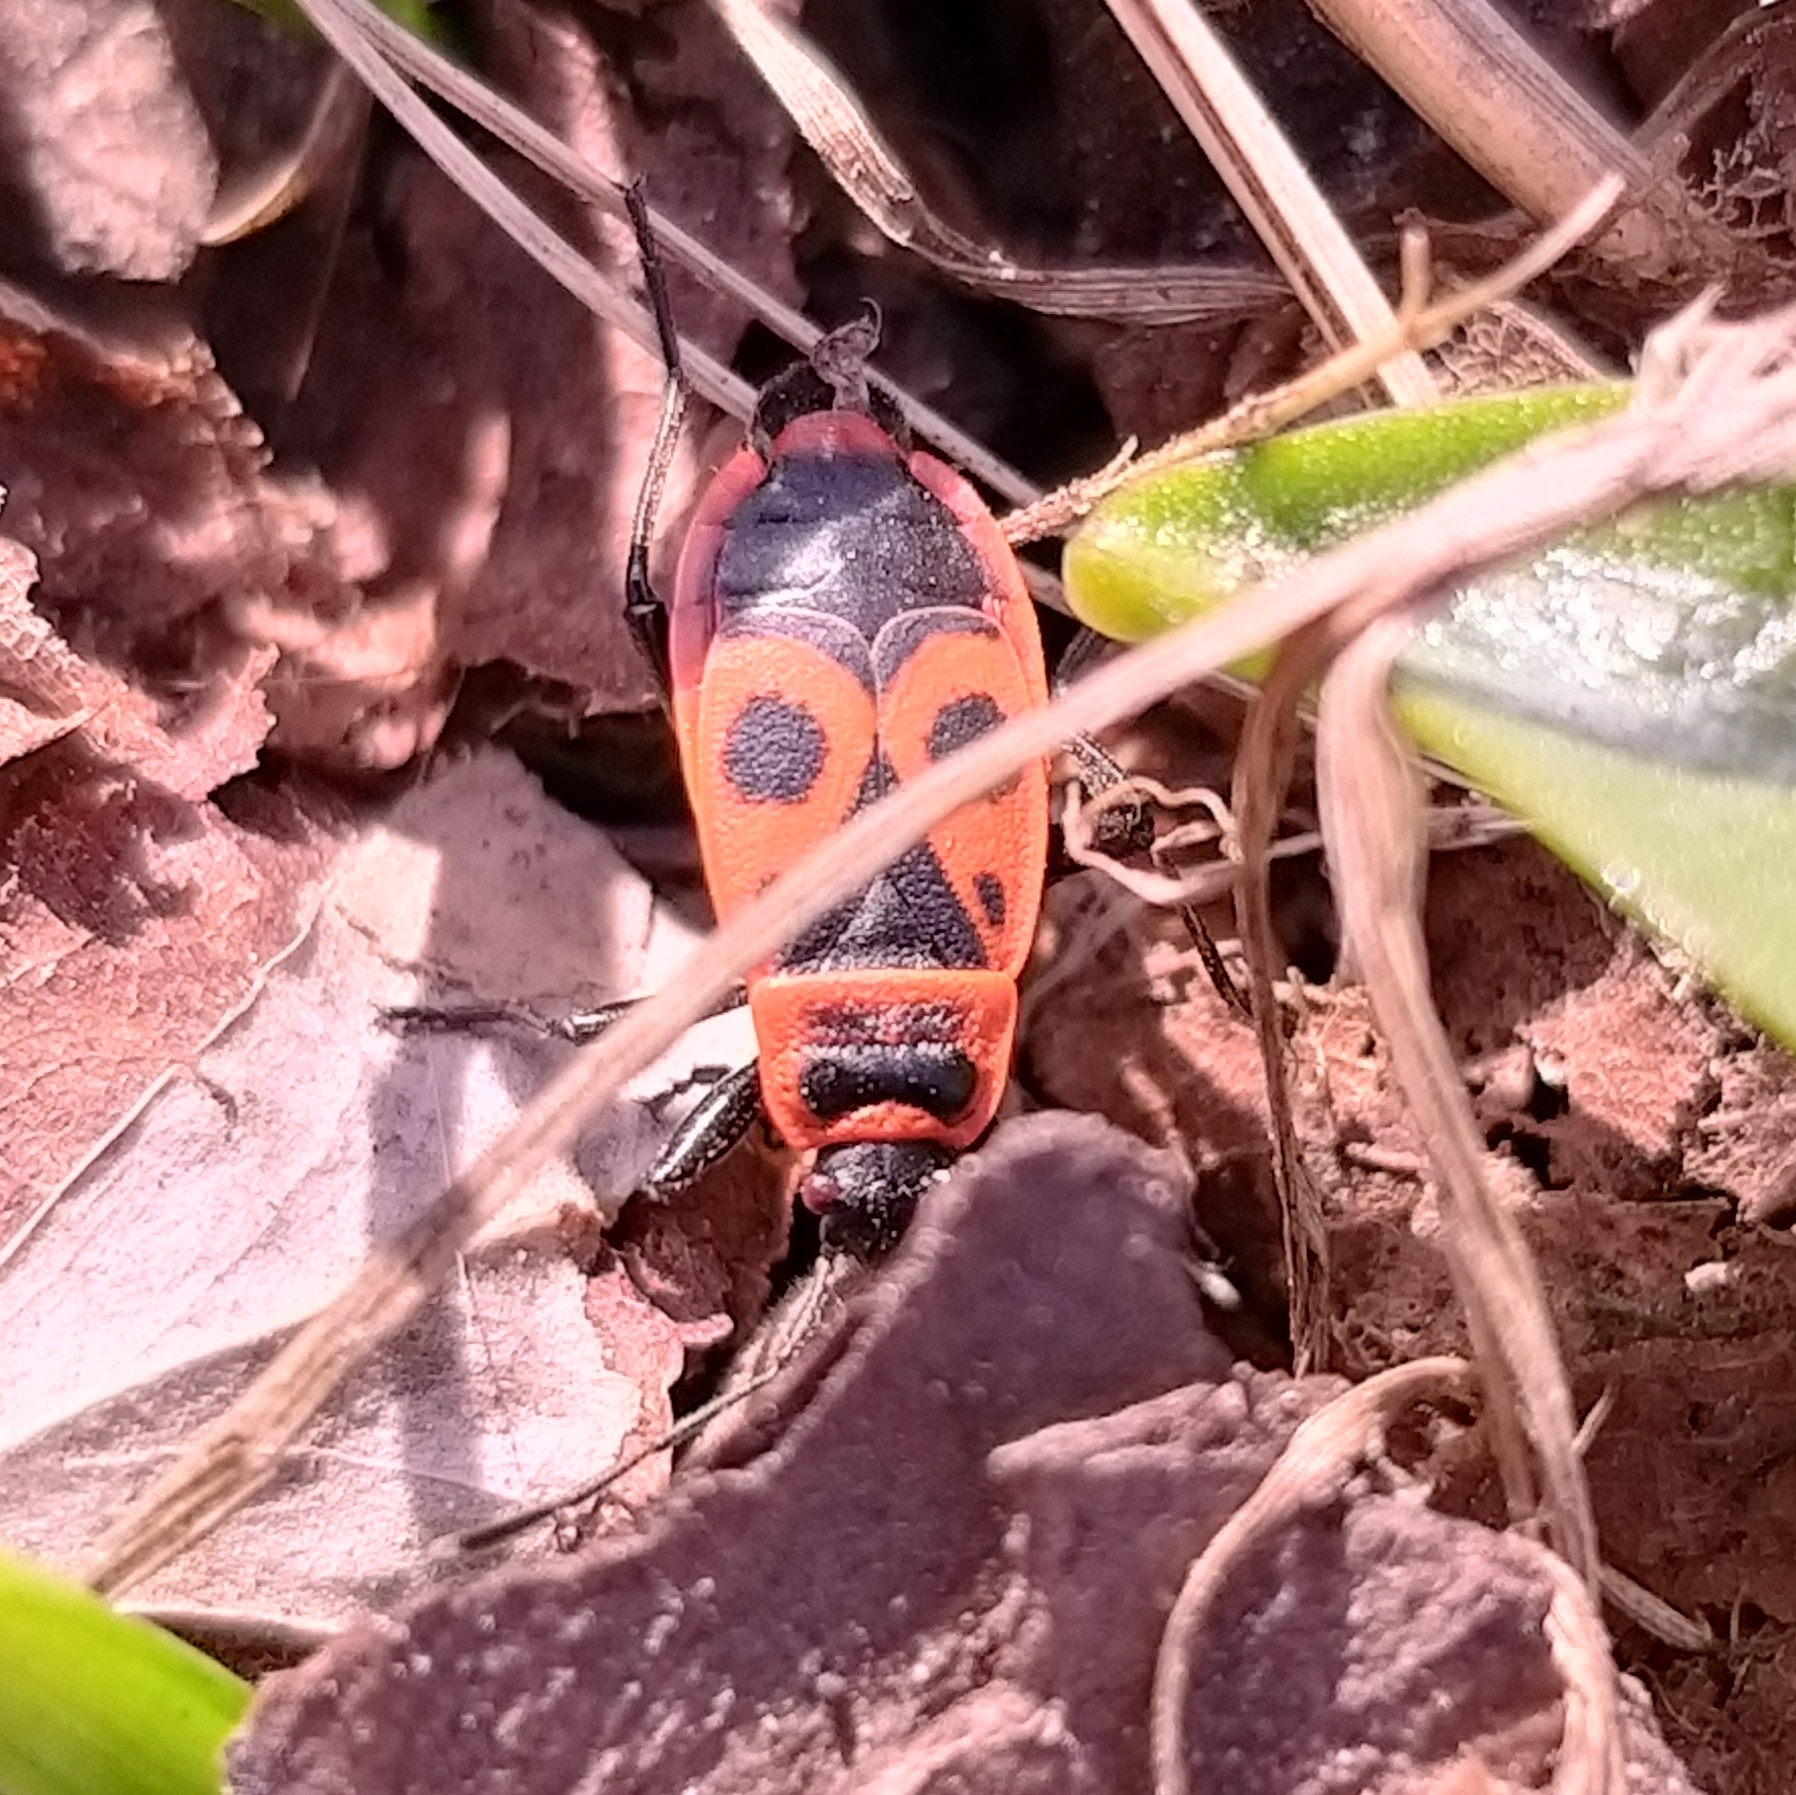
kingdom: Animalia
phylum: Arthropoda
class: Insecta
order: Hemiptera
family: Pyrrhocoridae
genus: Pyrrhocoris
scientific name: Pyrrhocoris apterus
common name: Firebug
